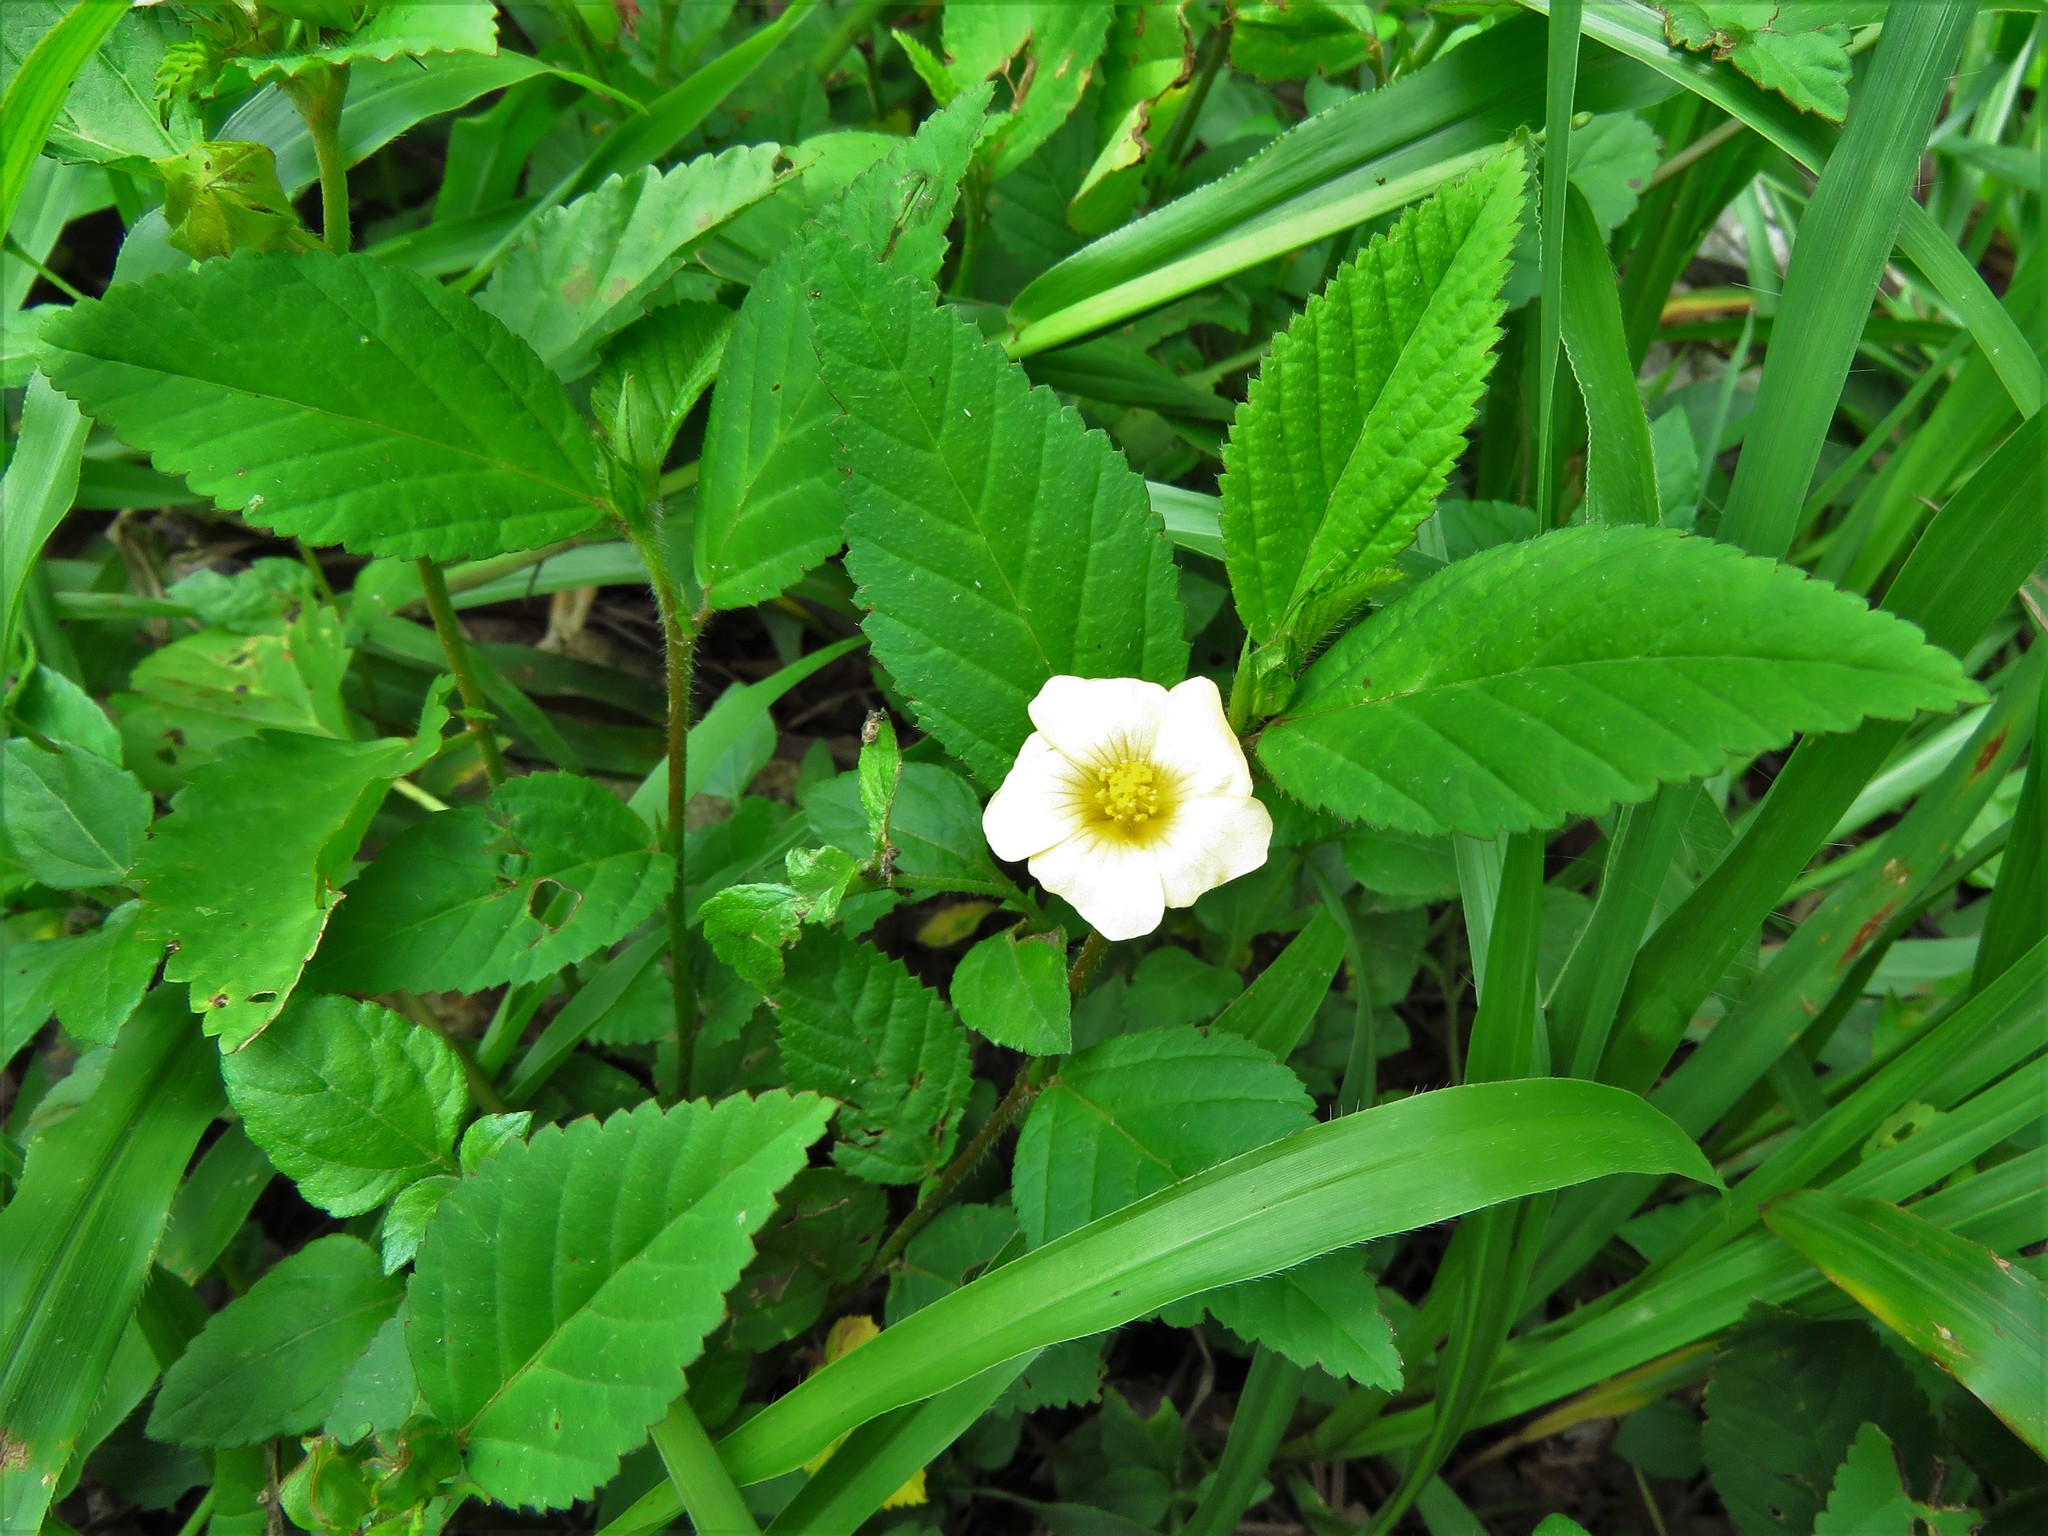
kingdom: Plantae
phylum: Tracheophyta
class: Magnoliopsida
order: Malvales
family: Malvaceae
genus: Sida
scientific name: Sida rhombifolia
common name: Queensland-hemp
